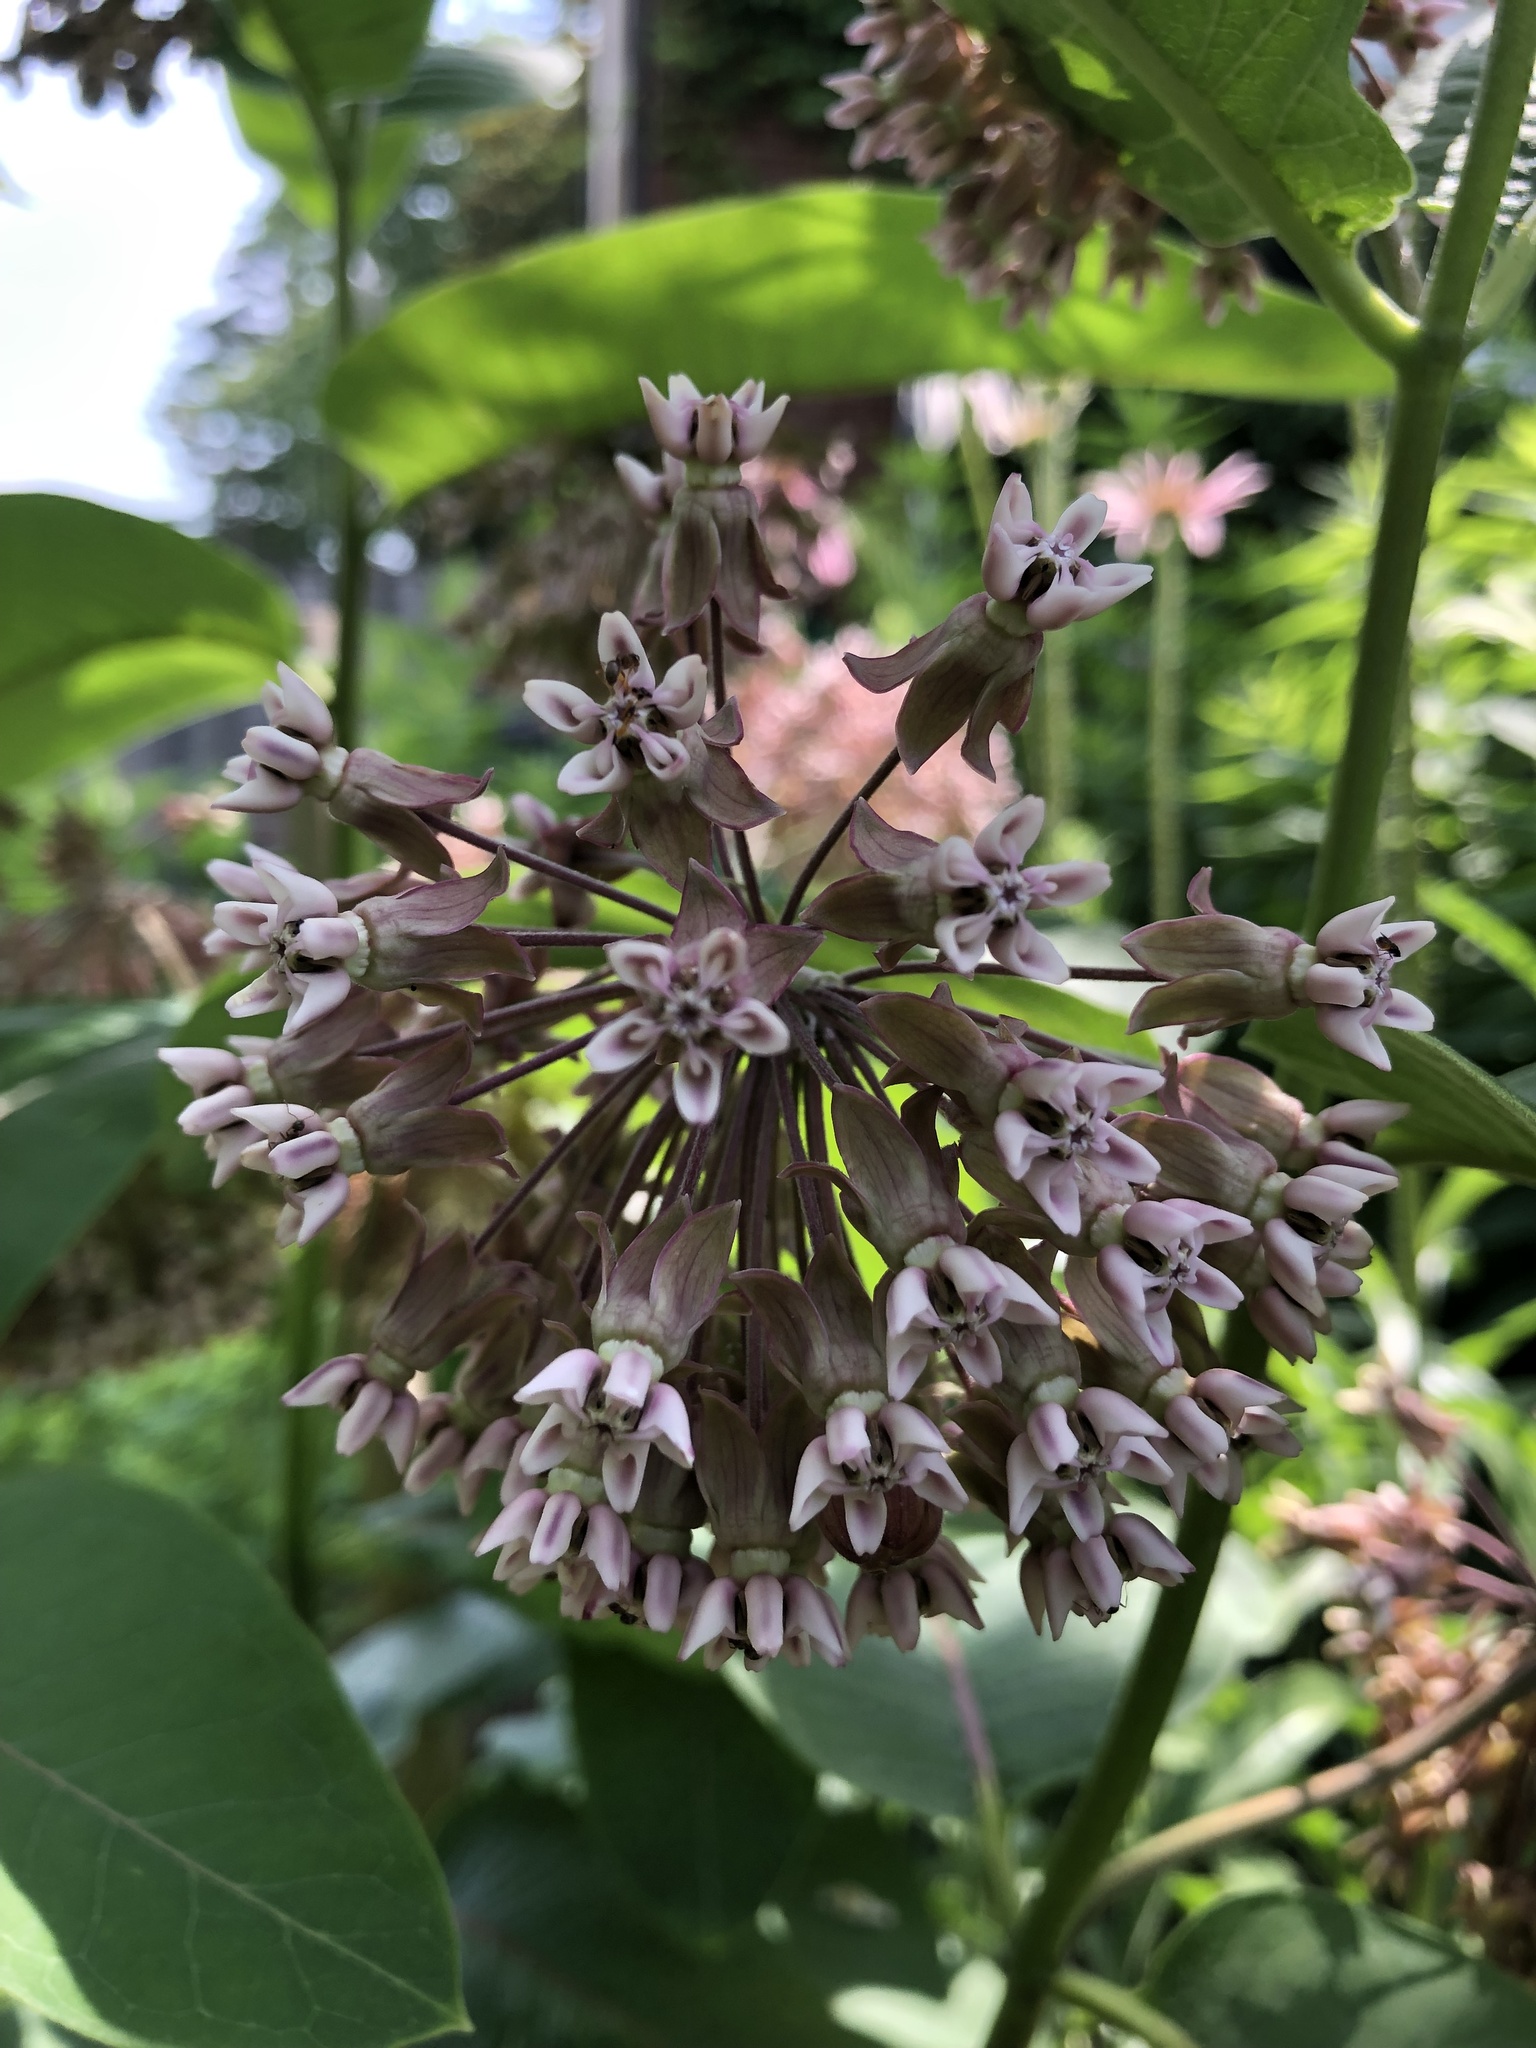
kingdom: Plantae
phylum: Tracheophyta
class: Magnoliopsida
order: Gentianales
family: Apocynaceae
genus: Asclepias
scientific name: Asclepias syriaca
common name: Common milkweed
